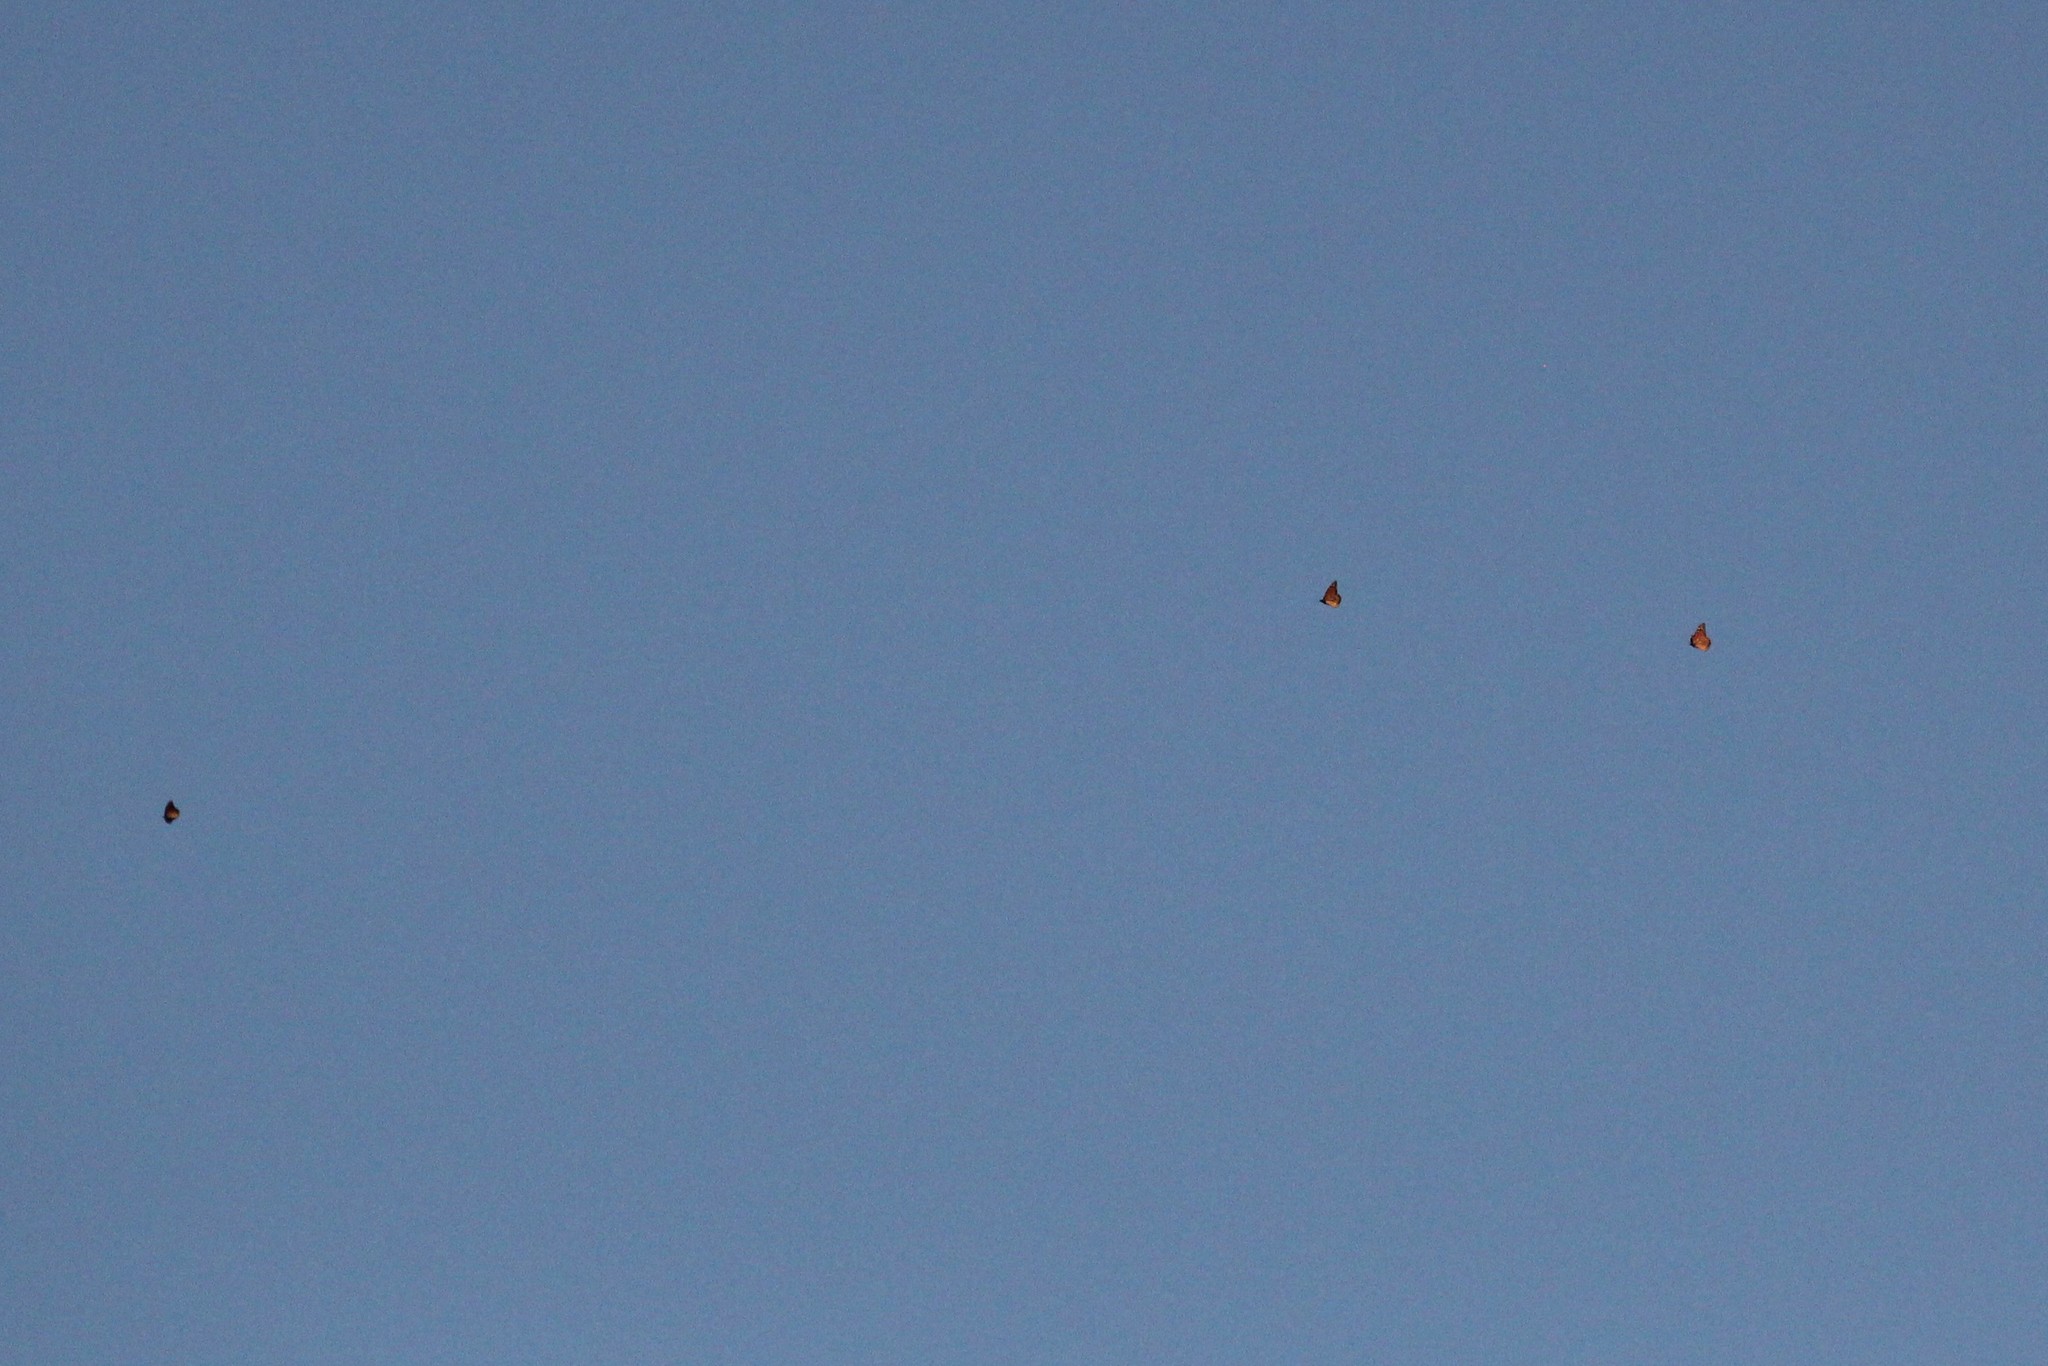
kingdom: Animalia
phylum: Arthropoda
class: Insecta
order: Lepidoptera
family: Nymphalidae
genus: Danaus
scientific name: Danaus plexippus
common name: Monarch
